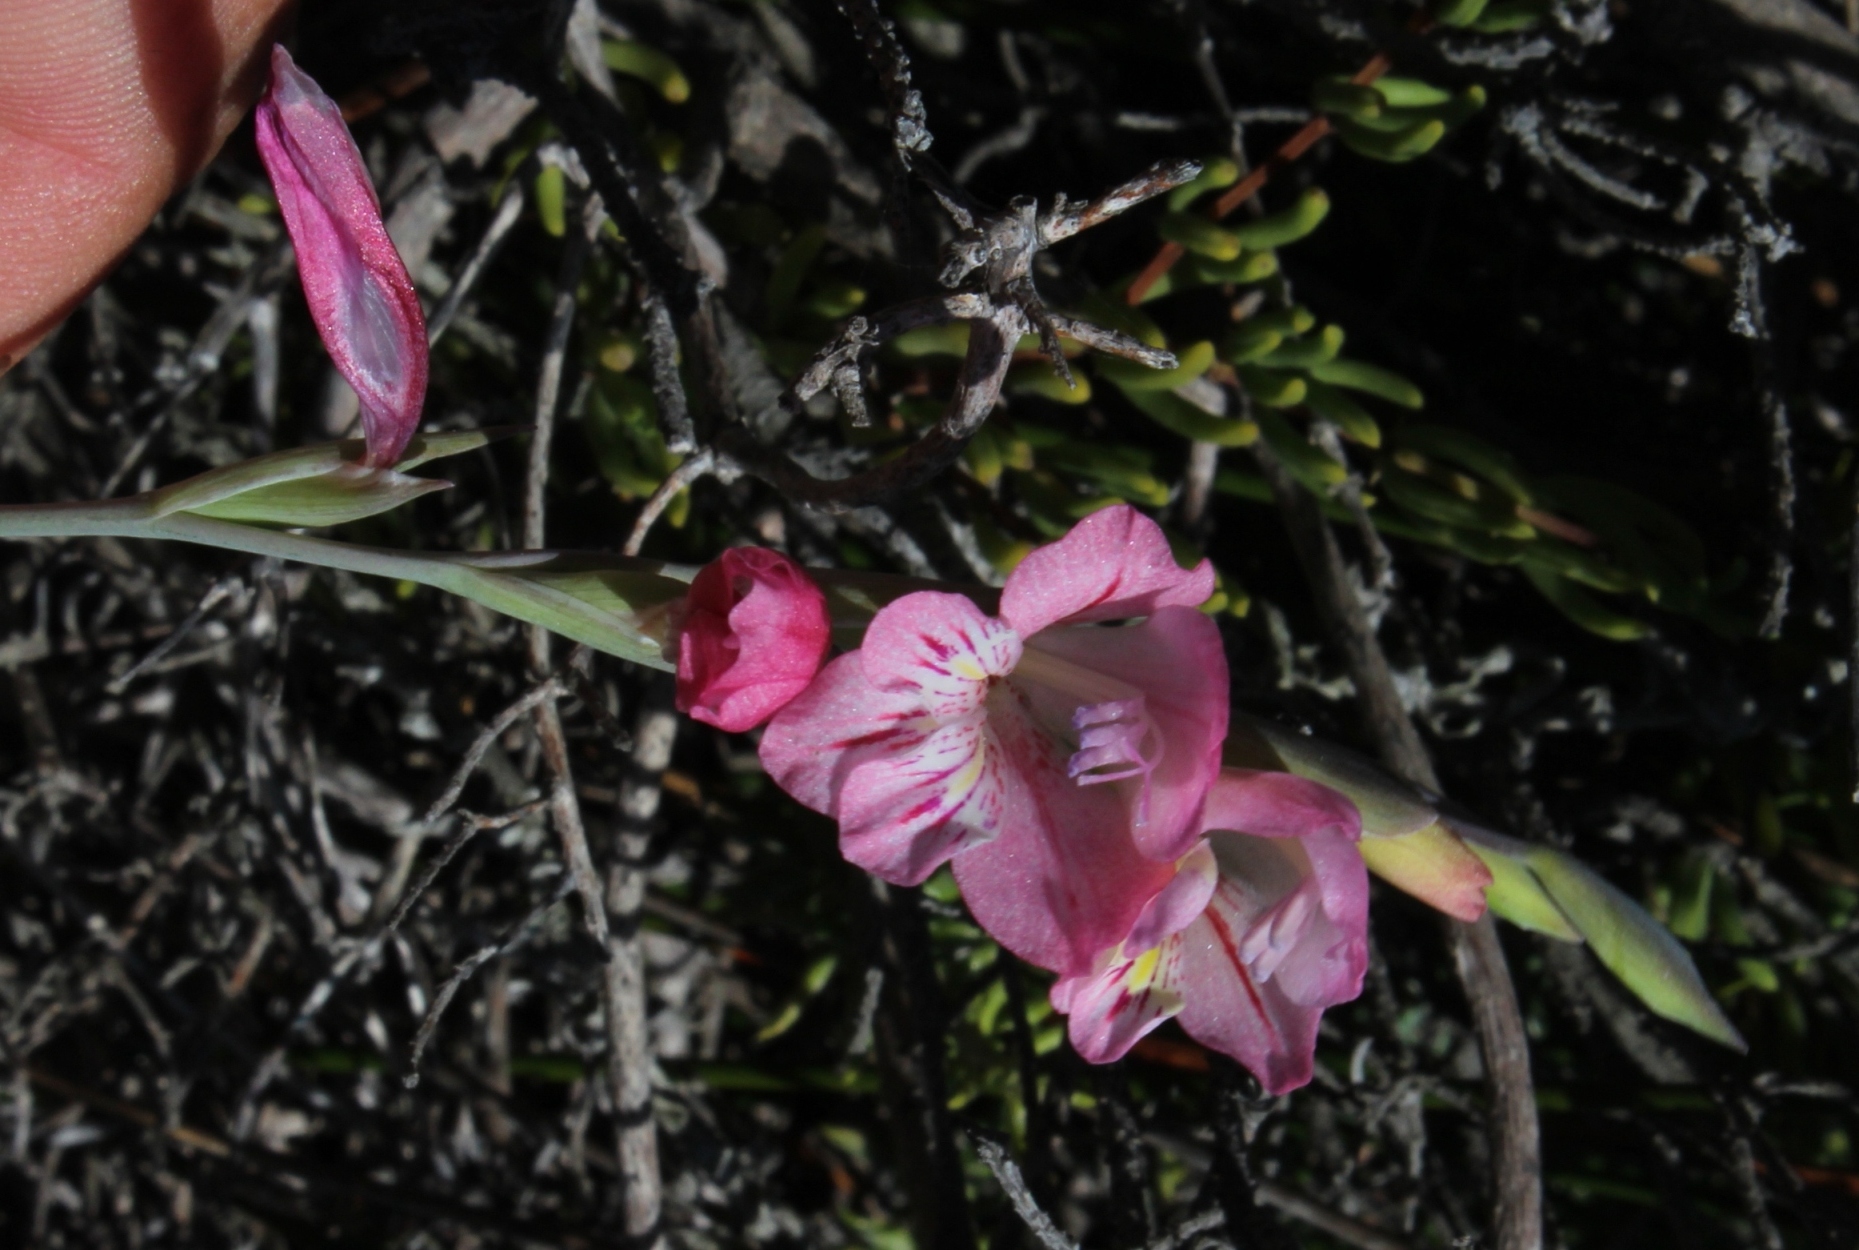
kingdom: Plantae
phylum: Tracheophyta
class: Liliopsida
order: Asparagales
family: Iridaceae
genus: Gladiolus
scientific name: Gladiolus brevifolius
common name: March pypie
